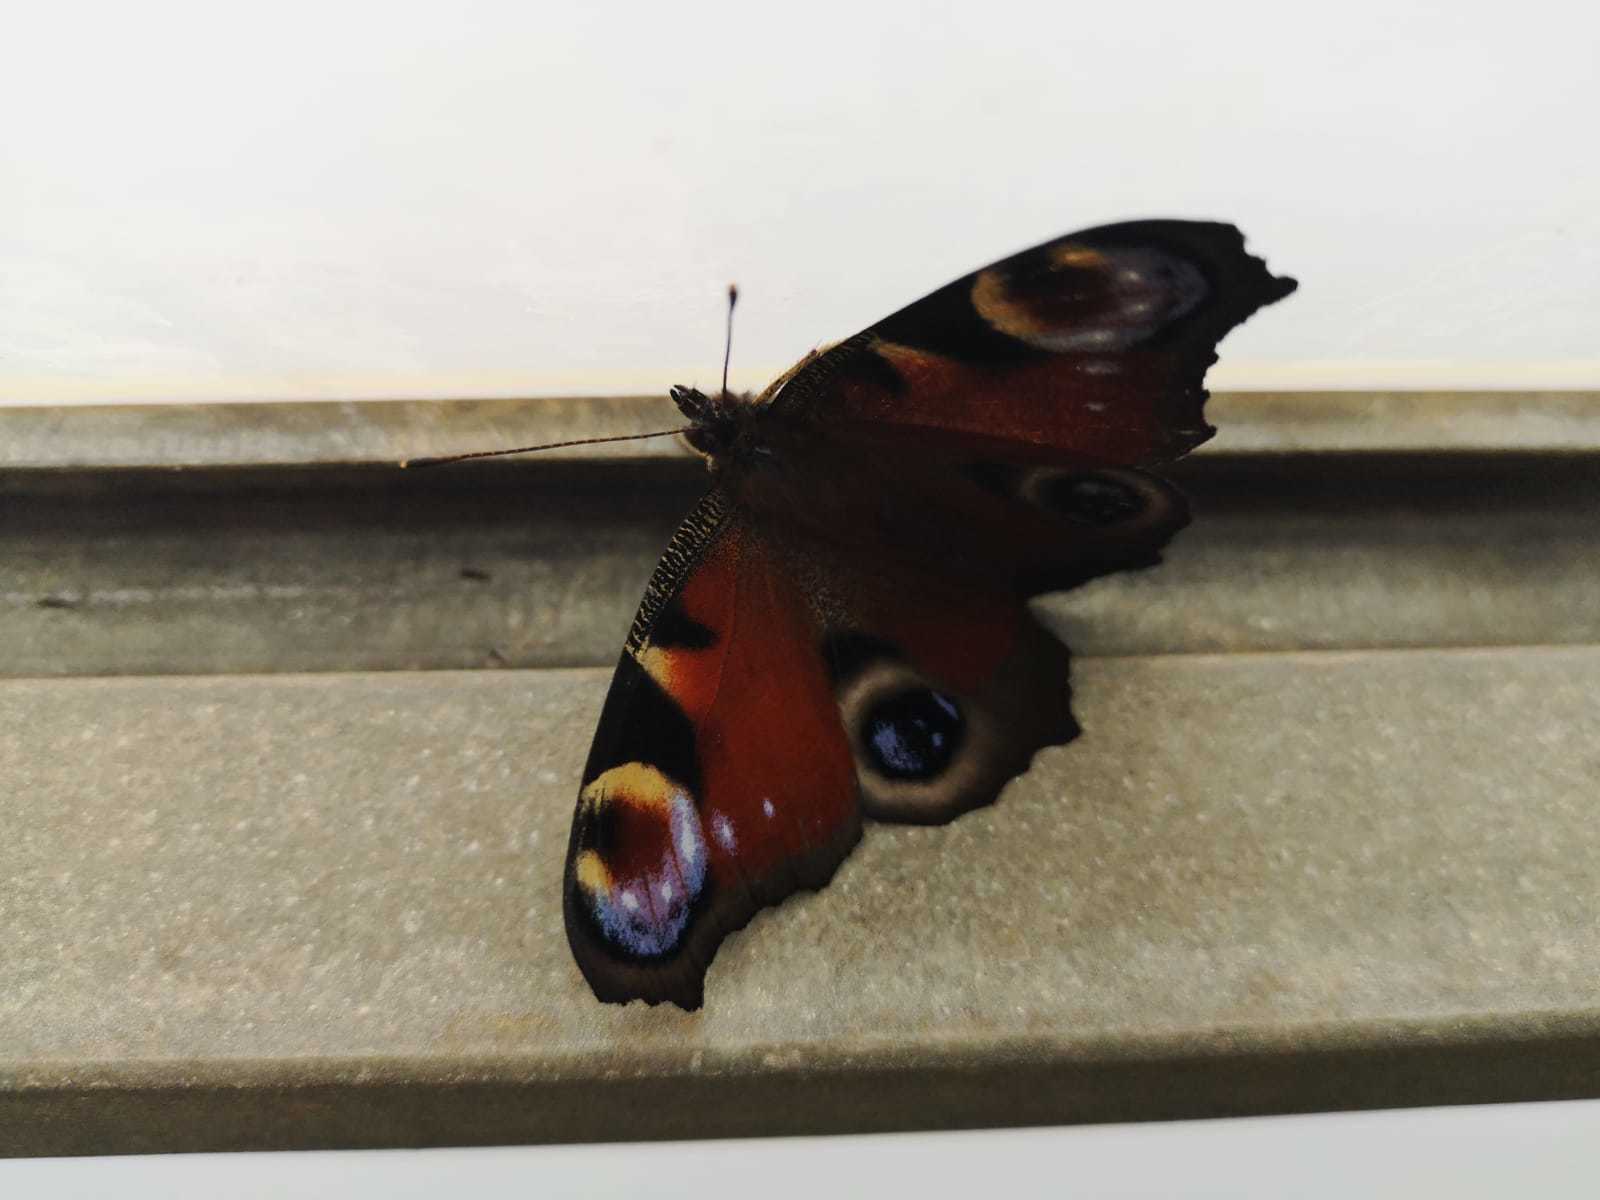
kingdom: Animalia
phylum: Arthropoda
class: Insecta
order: Lepidoptera
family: Nymphalidae
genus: Aglais
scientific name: Aglais io
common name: Peacock
